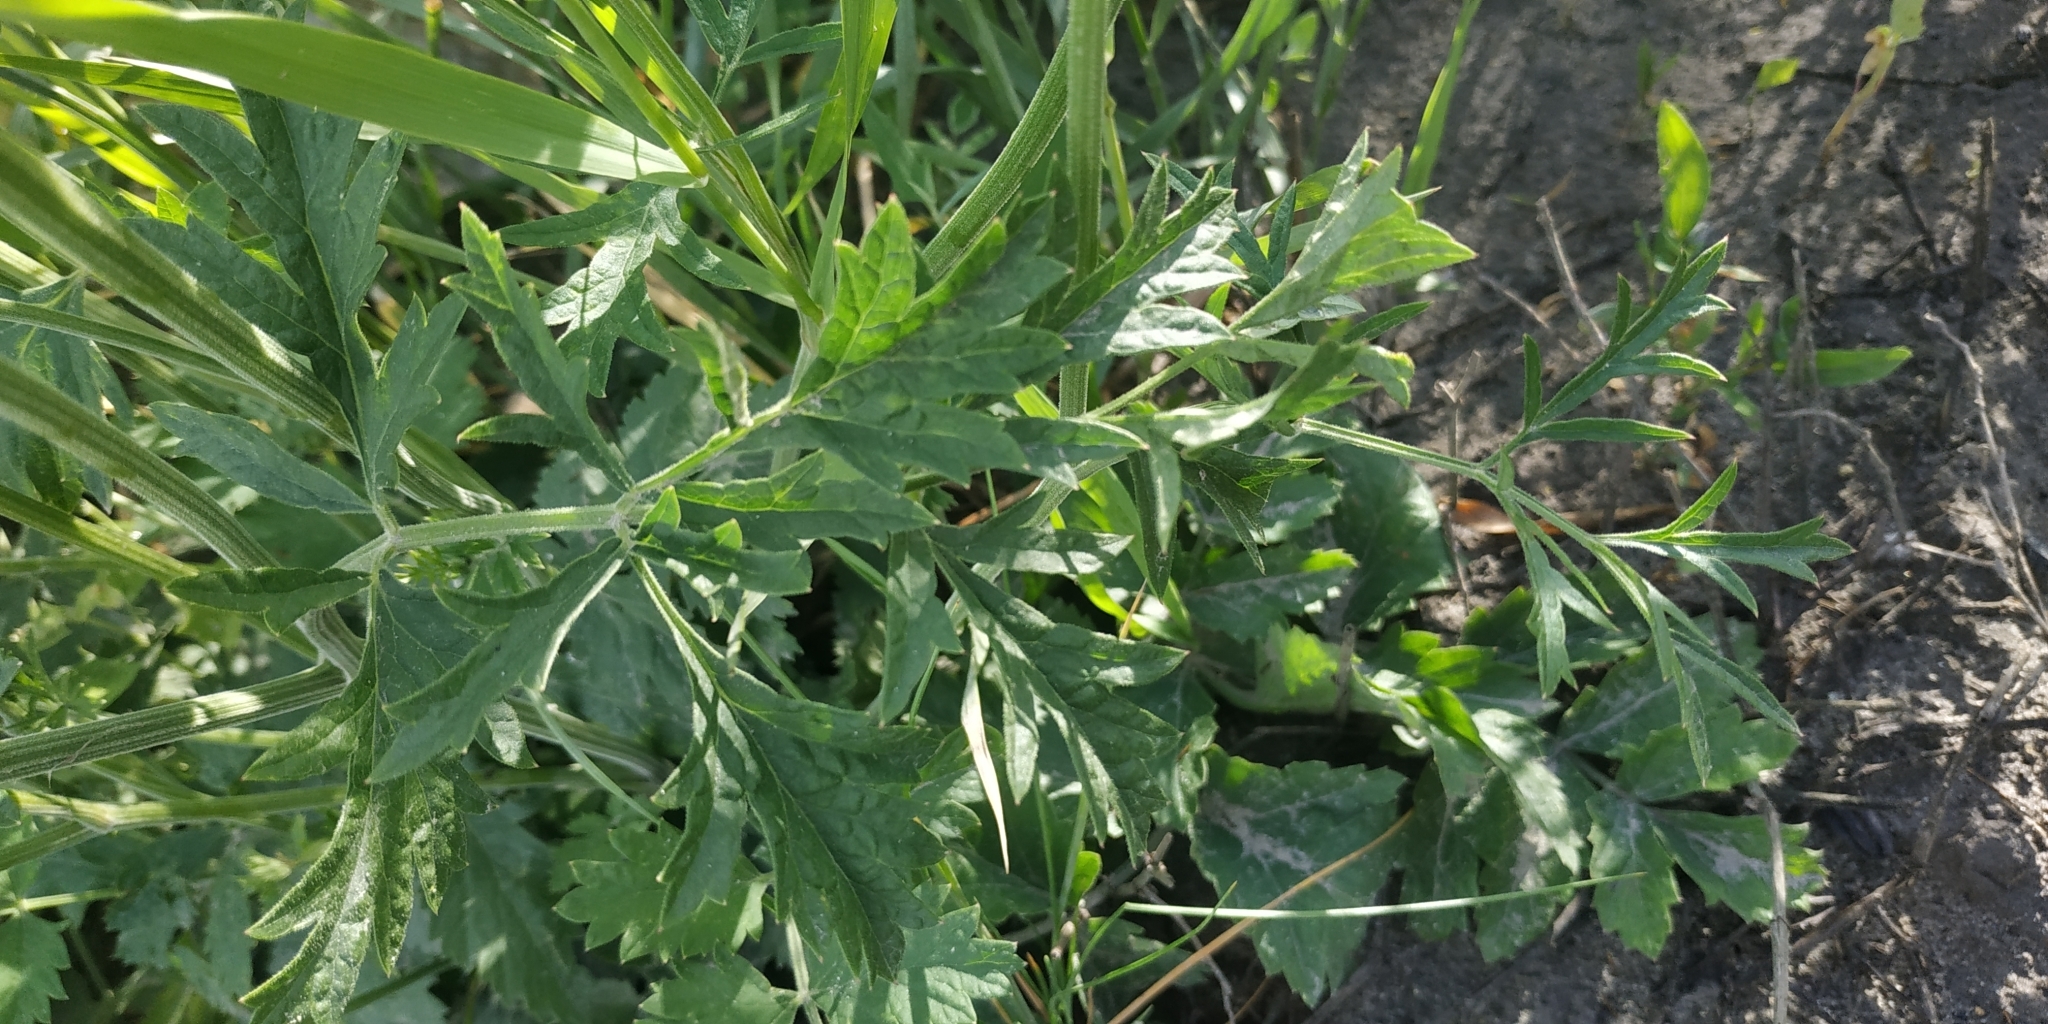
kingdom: Plantae
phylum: Tracheophyta
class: Magnoliopsida
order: Apiales
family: Apiaceae
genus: Pimpinella
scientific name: Pimpinella saxifraga
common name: Burnet-saxifrage
